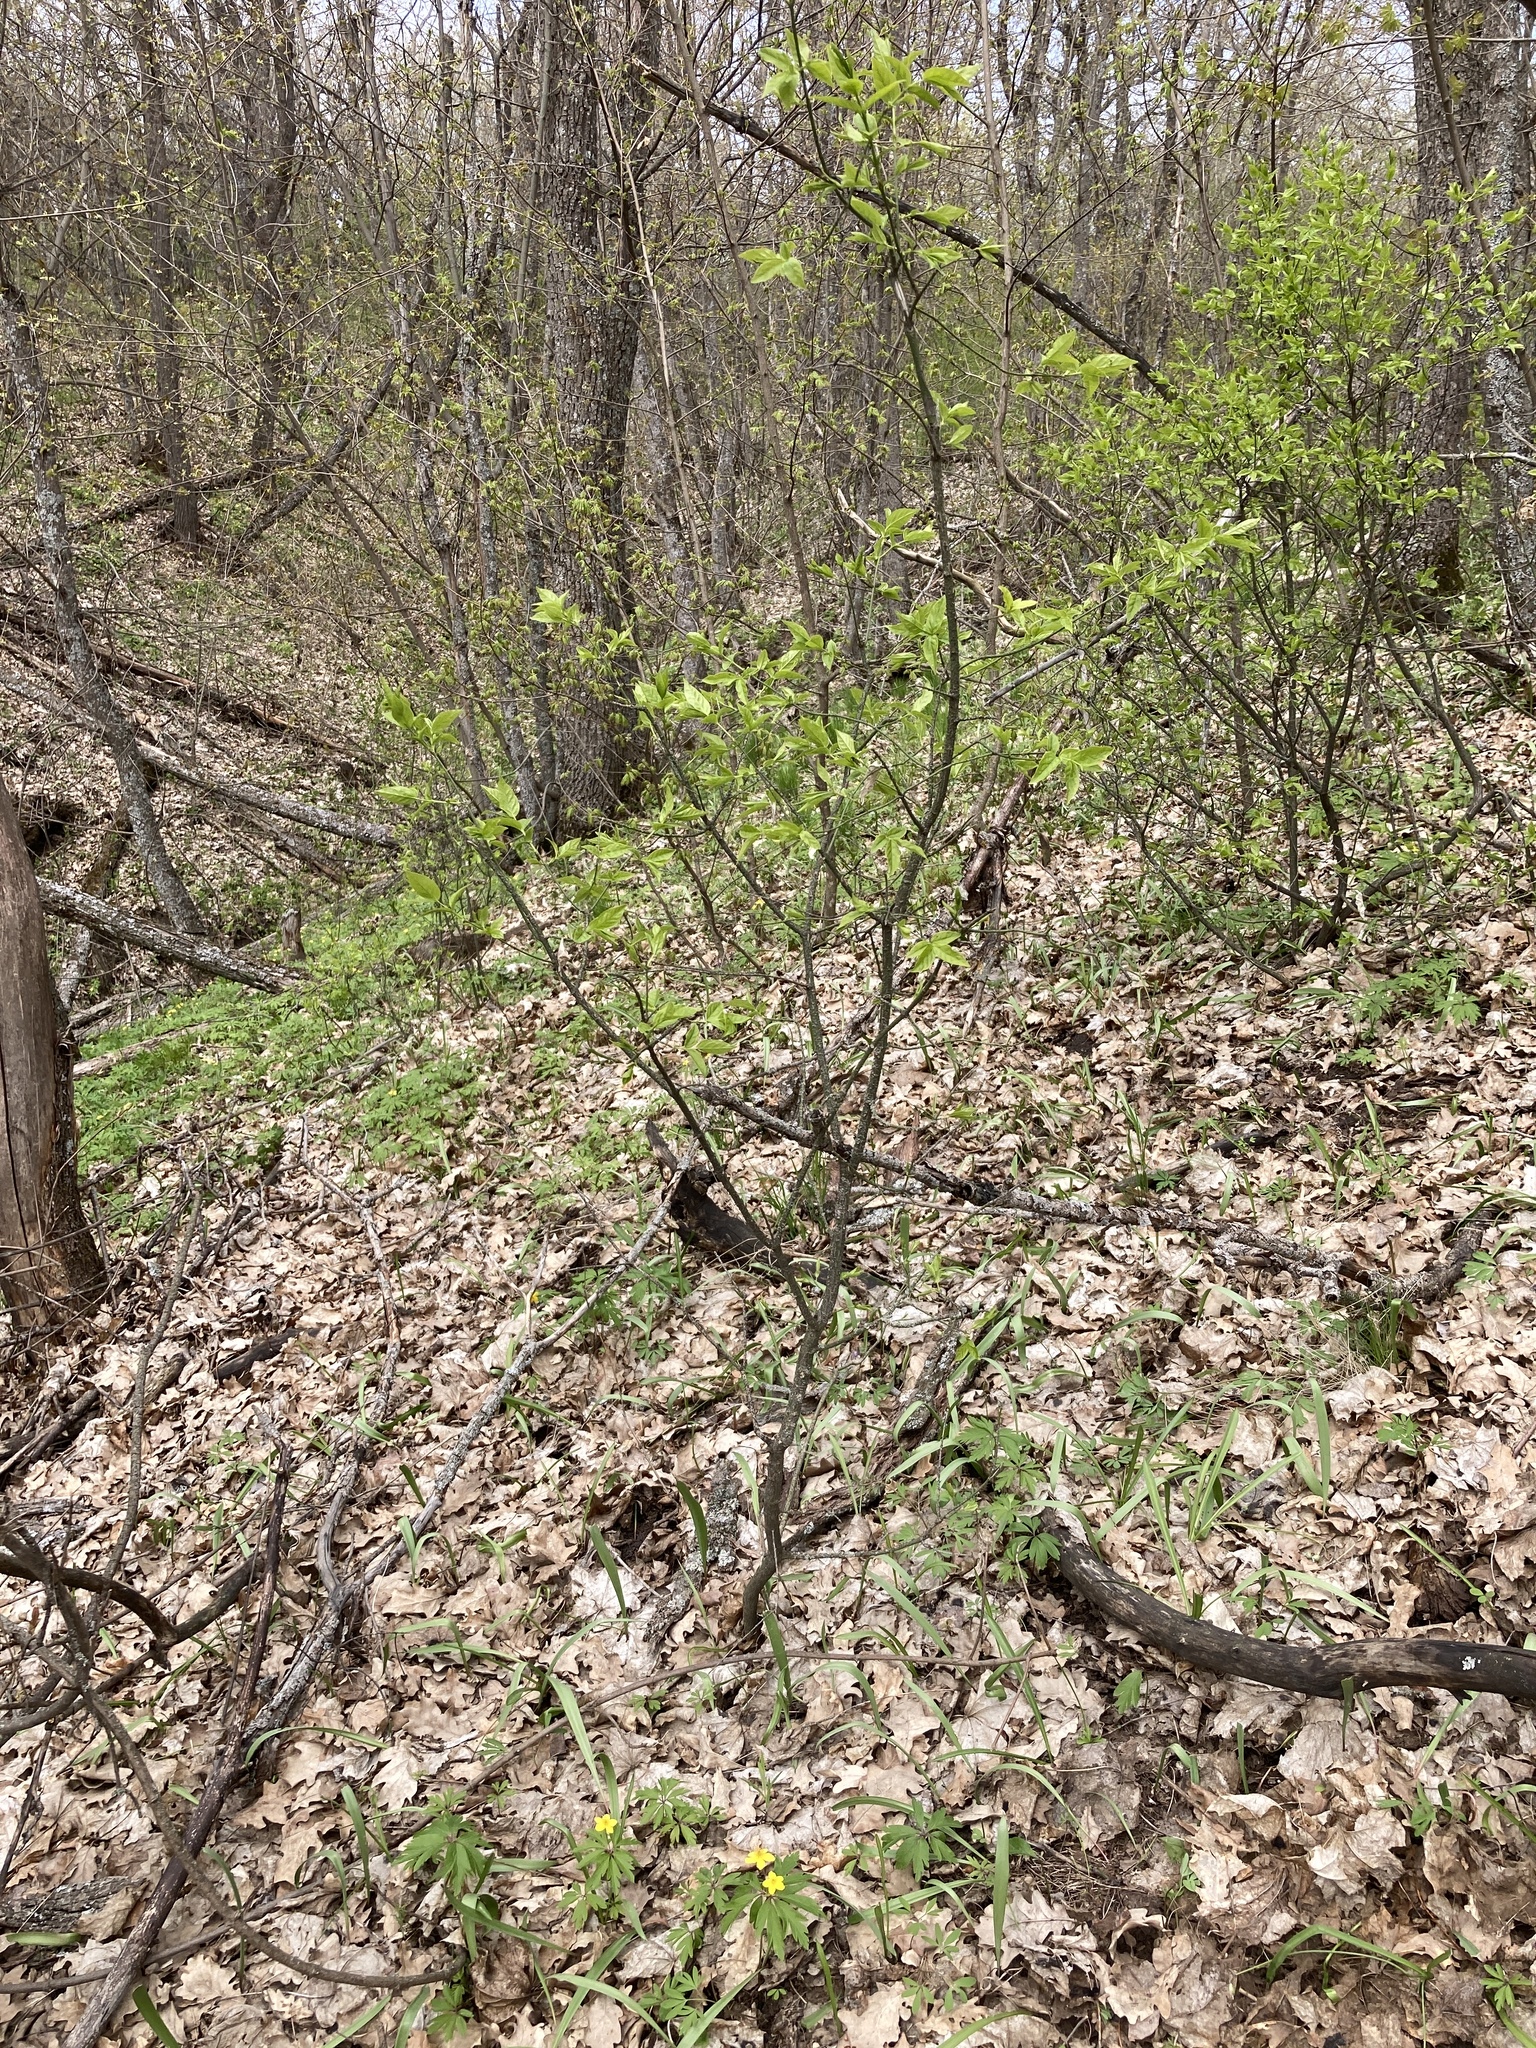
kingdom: Plantae
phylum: Tracheophyta
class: Magnoliopsida
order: Celastrales
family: Celastraceae
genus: Euonymus
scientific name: Euonymus verrucosus
